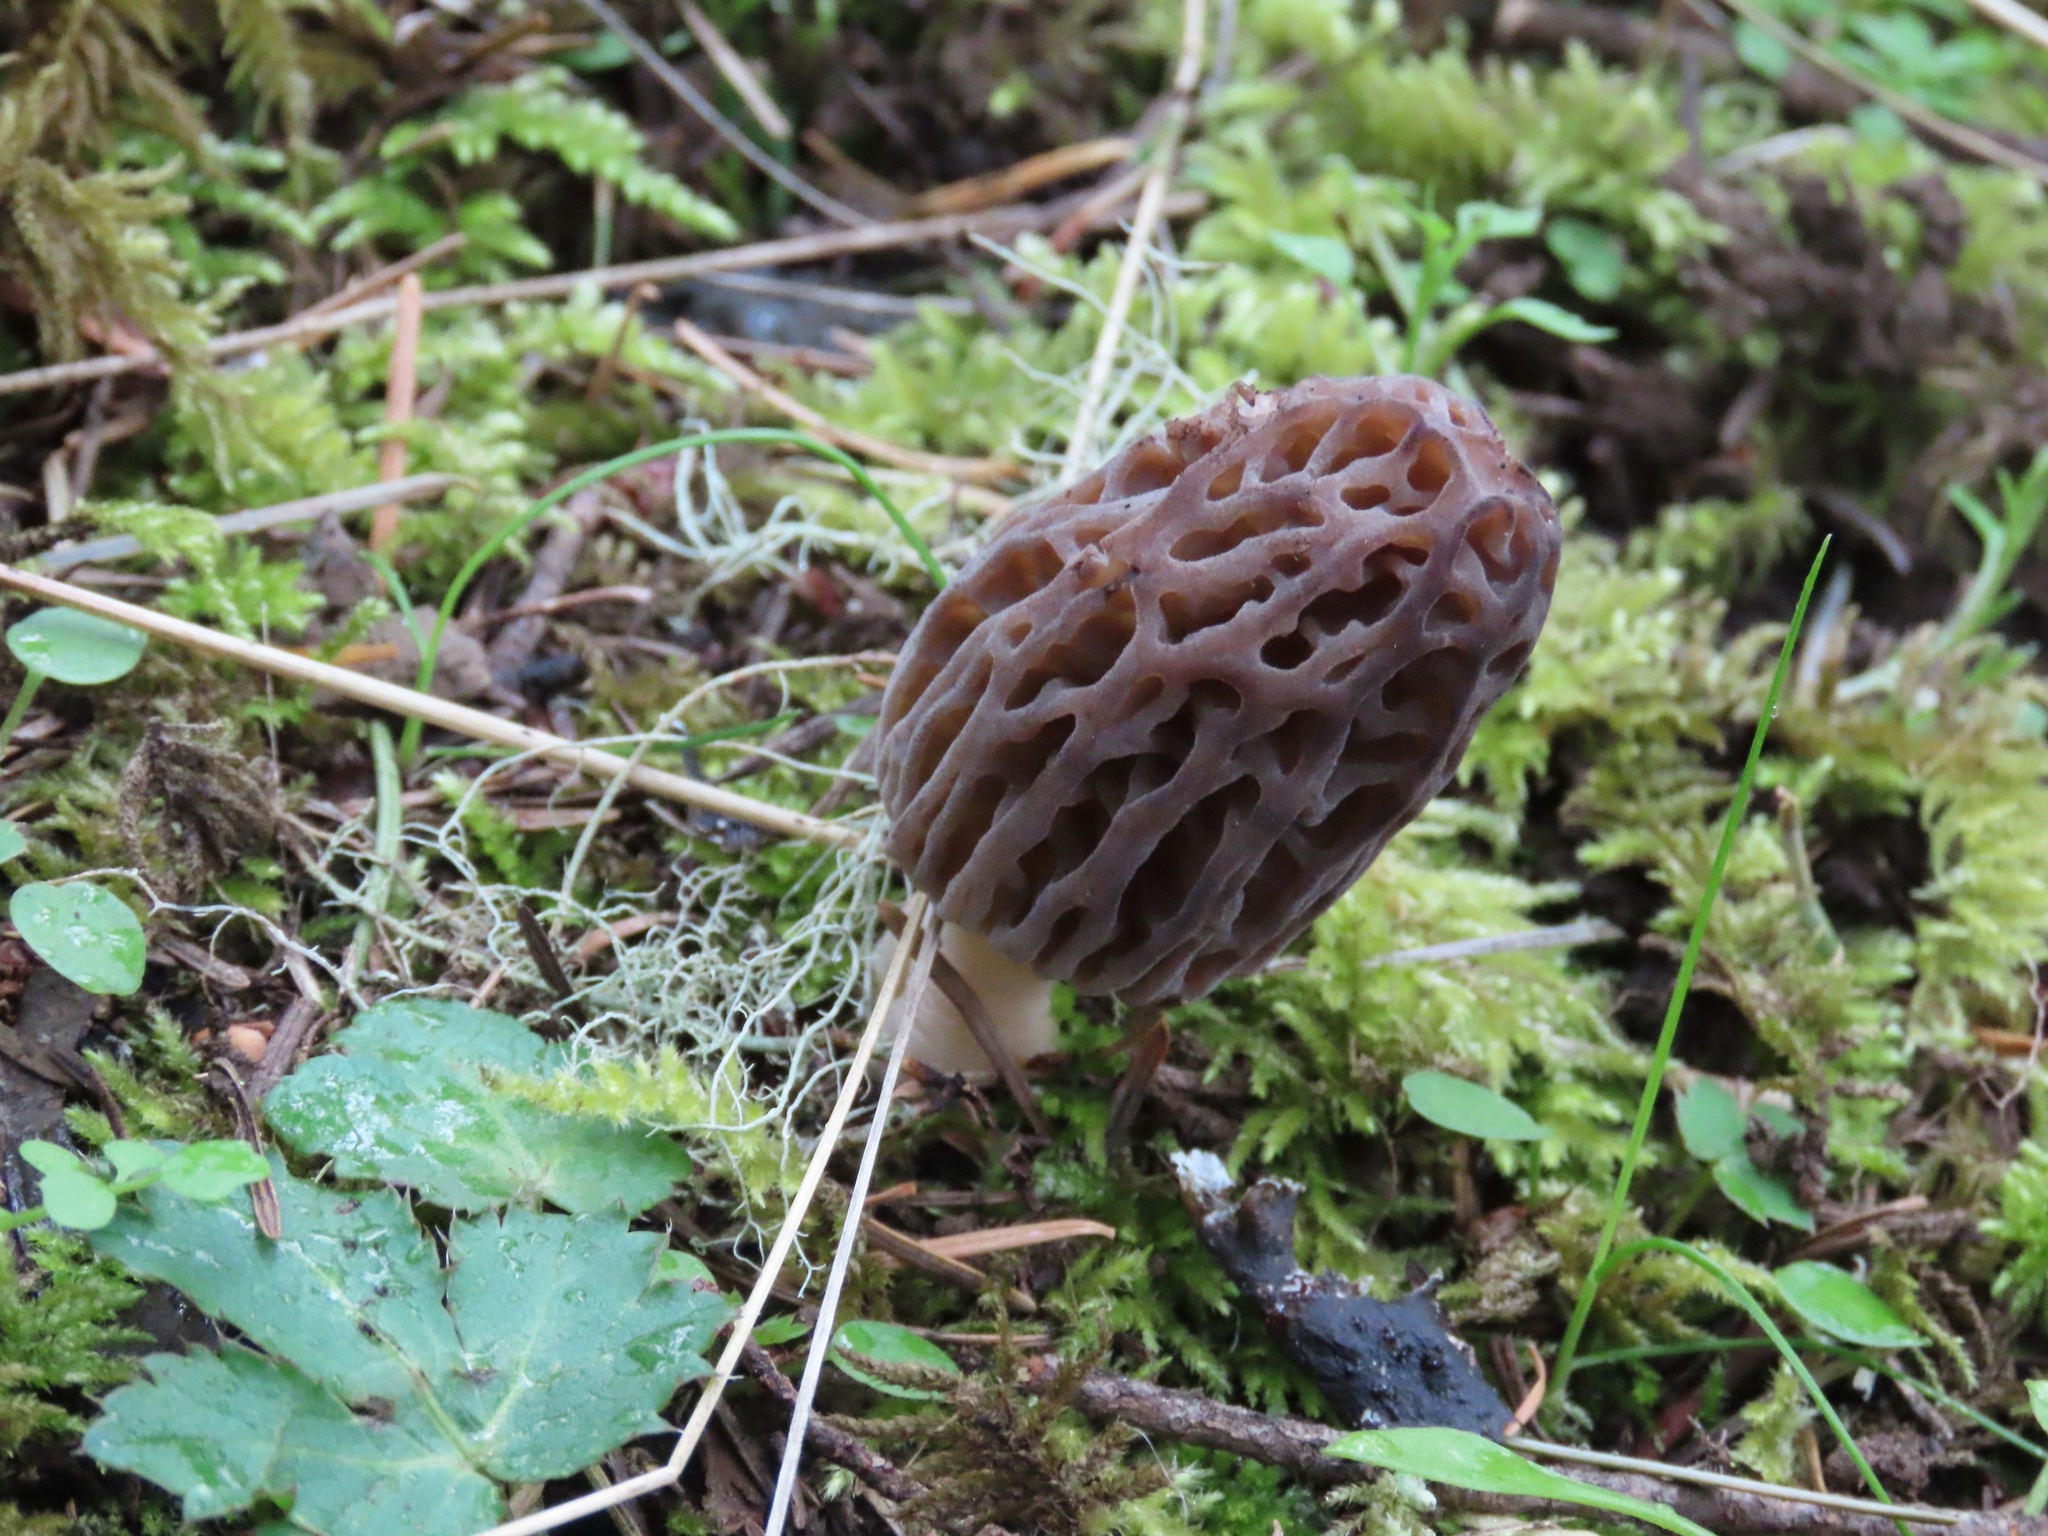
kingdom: Fungi
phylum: Ascomycota
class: Pezizomycetes
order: Pezizales
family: Morchellaceae
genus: Morchella
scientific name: Morchella norvegiensis
